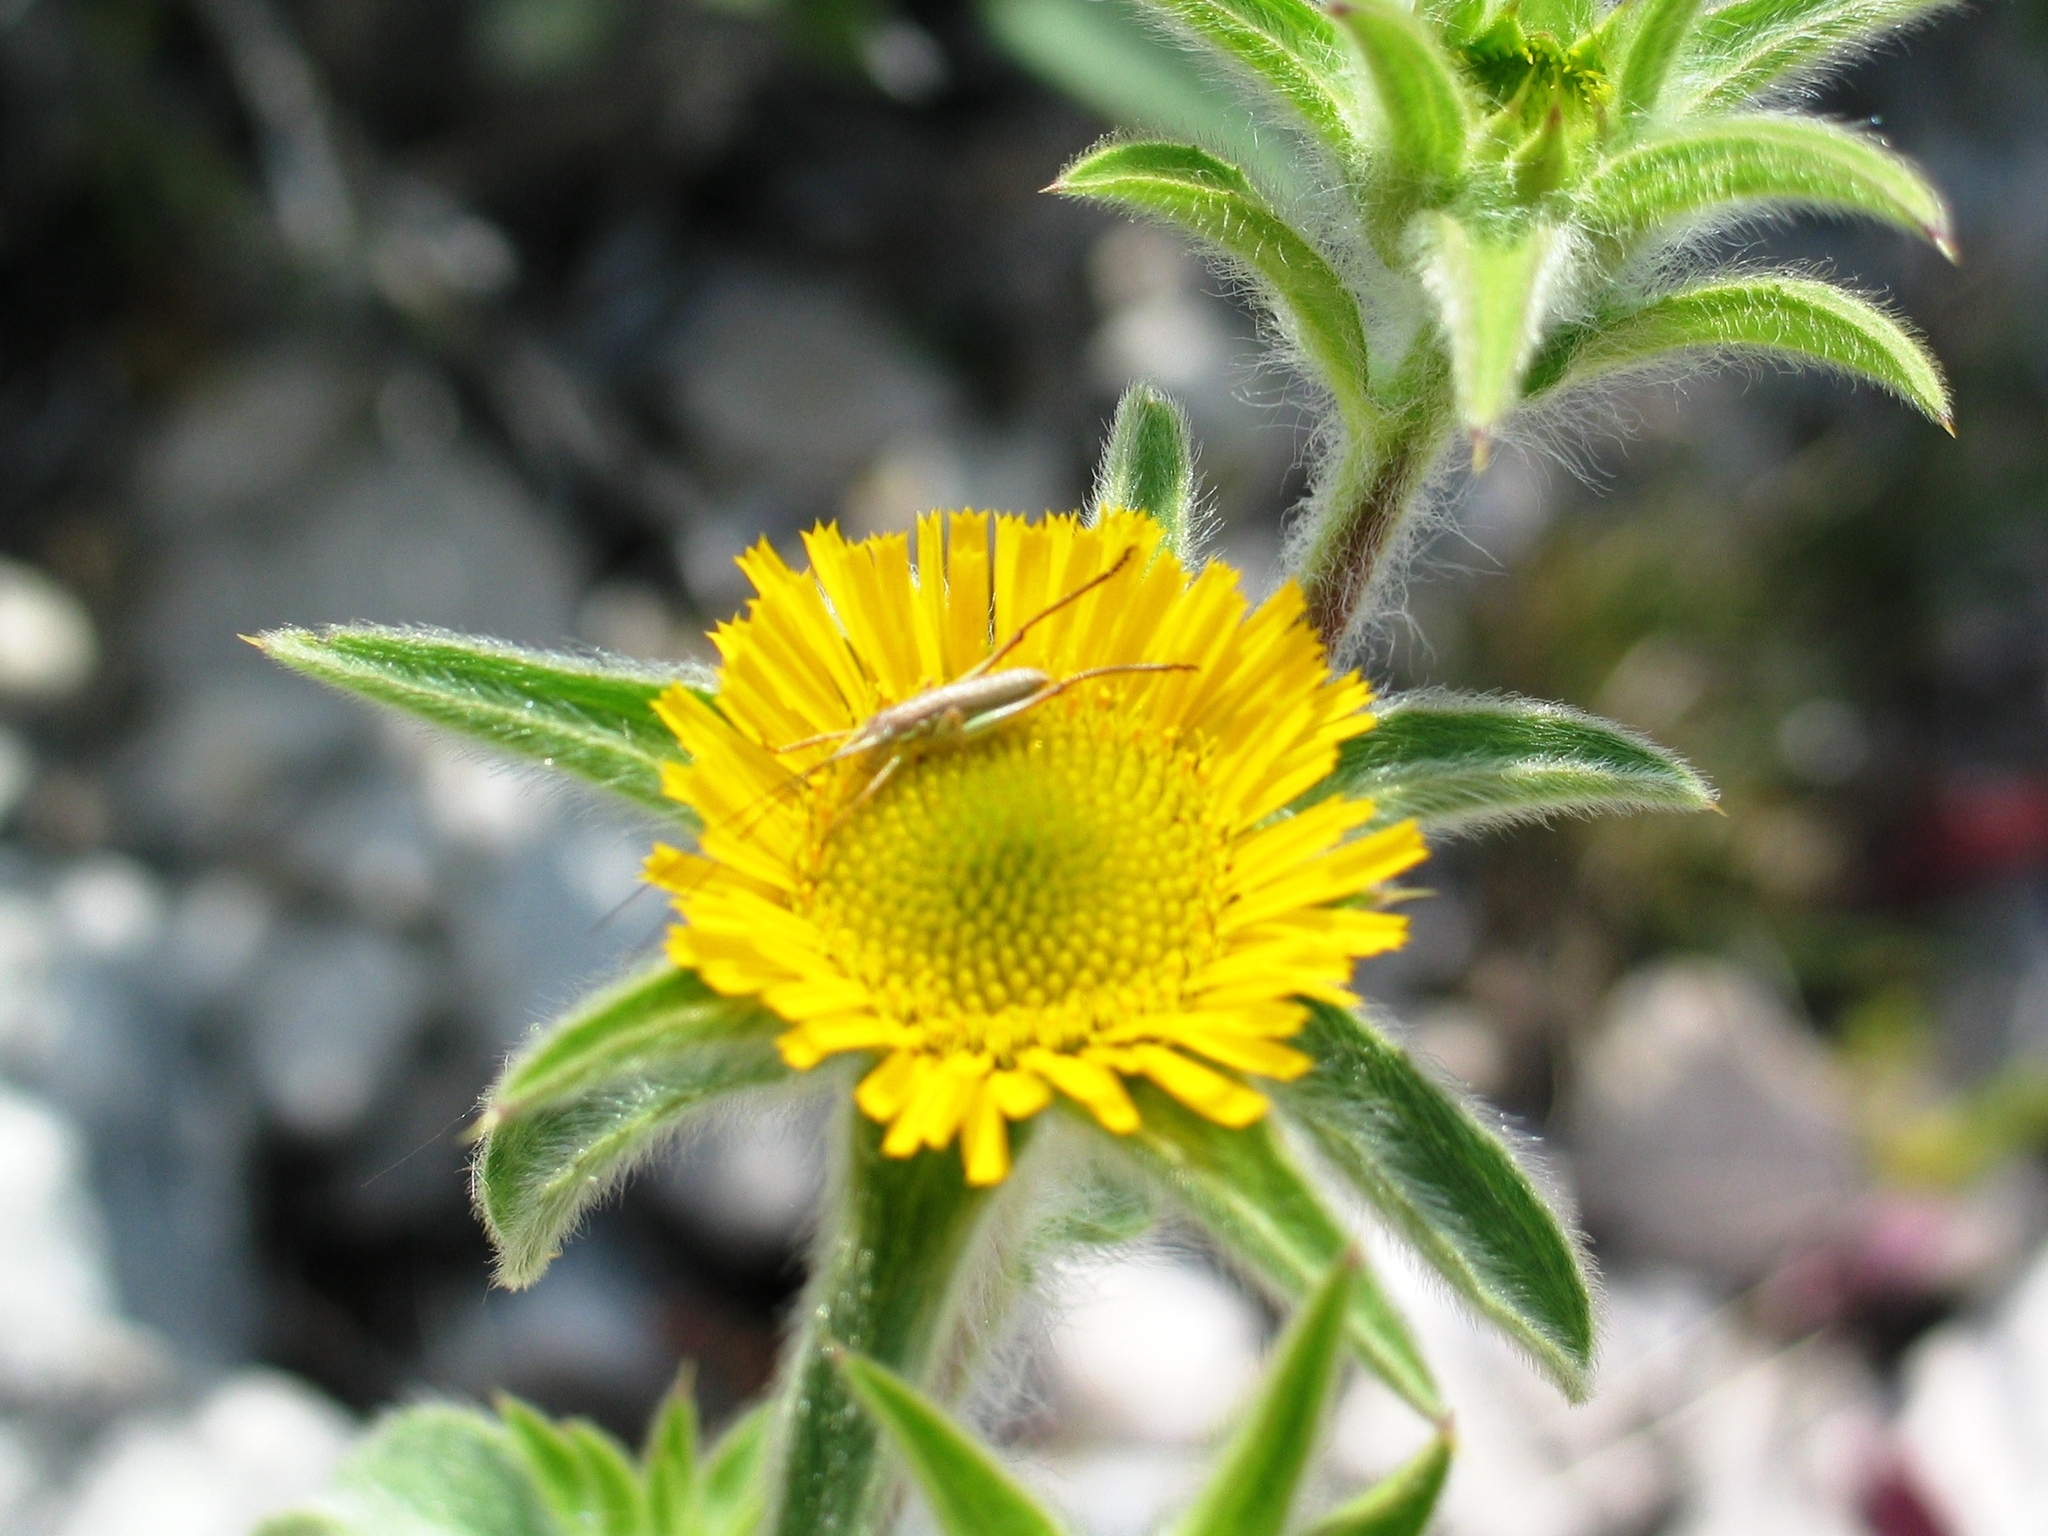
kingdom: Plantae
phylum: Tracheophyta
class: Magnoliopsida
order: Asterales
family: Asteraceae
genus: Pallenis
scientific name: Pallenis spinosa
